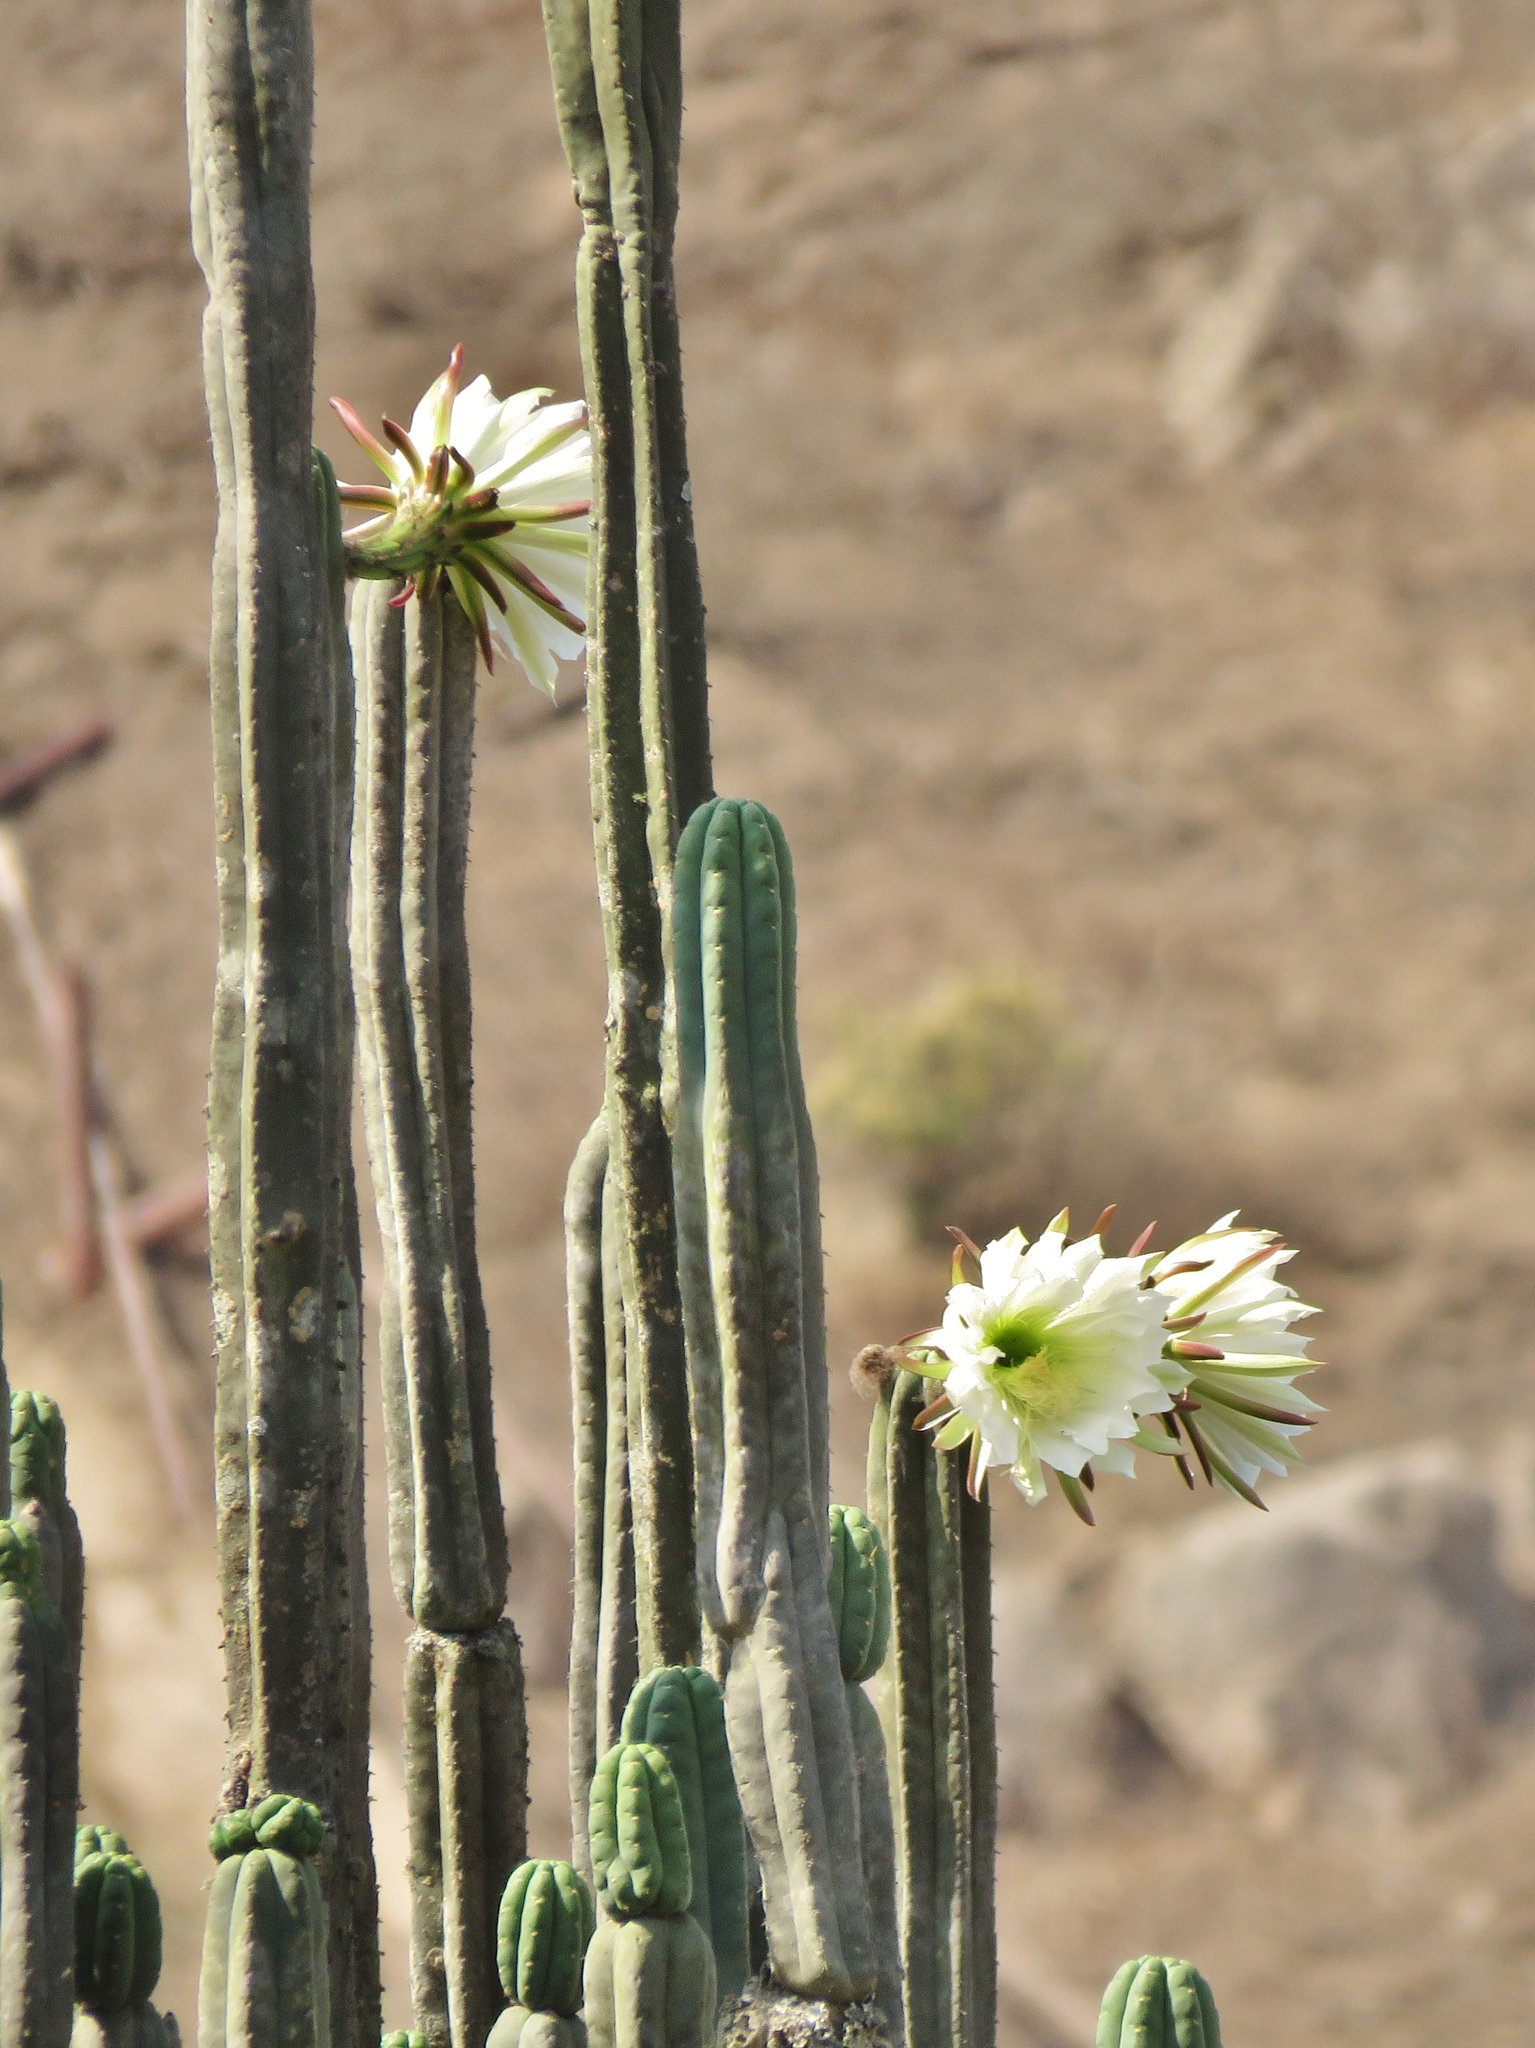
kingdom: Plantae
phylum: Tracheophyta
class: Magnoliopsida
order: Caryophyllales
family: Cactaceae
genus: Trichocereus
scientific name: Trichocereus macrogonus
